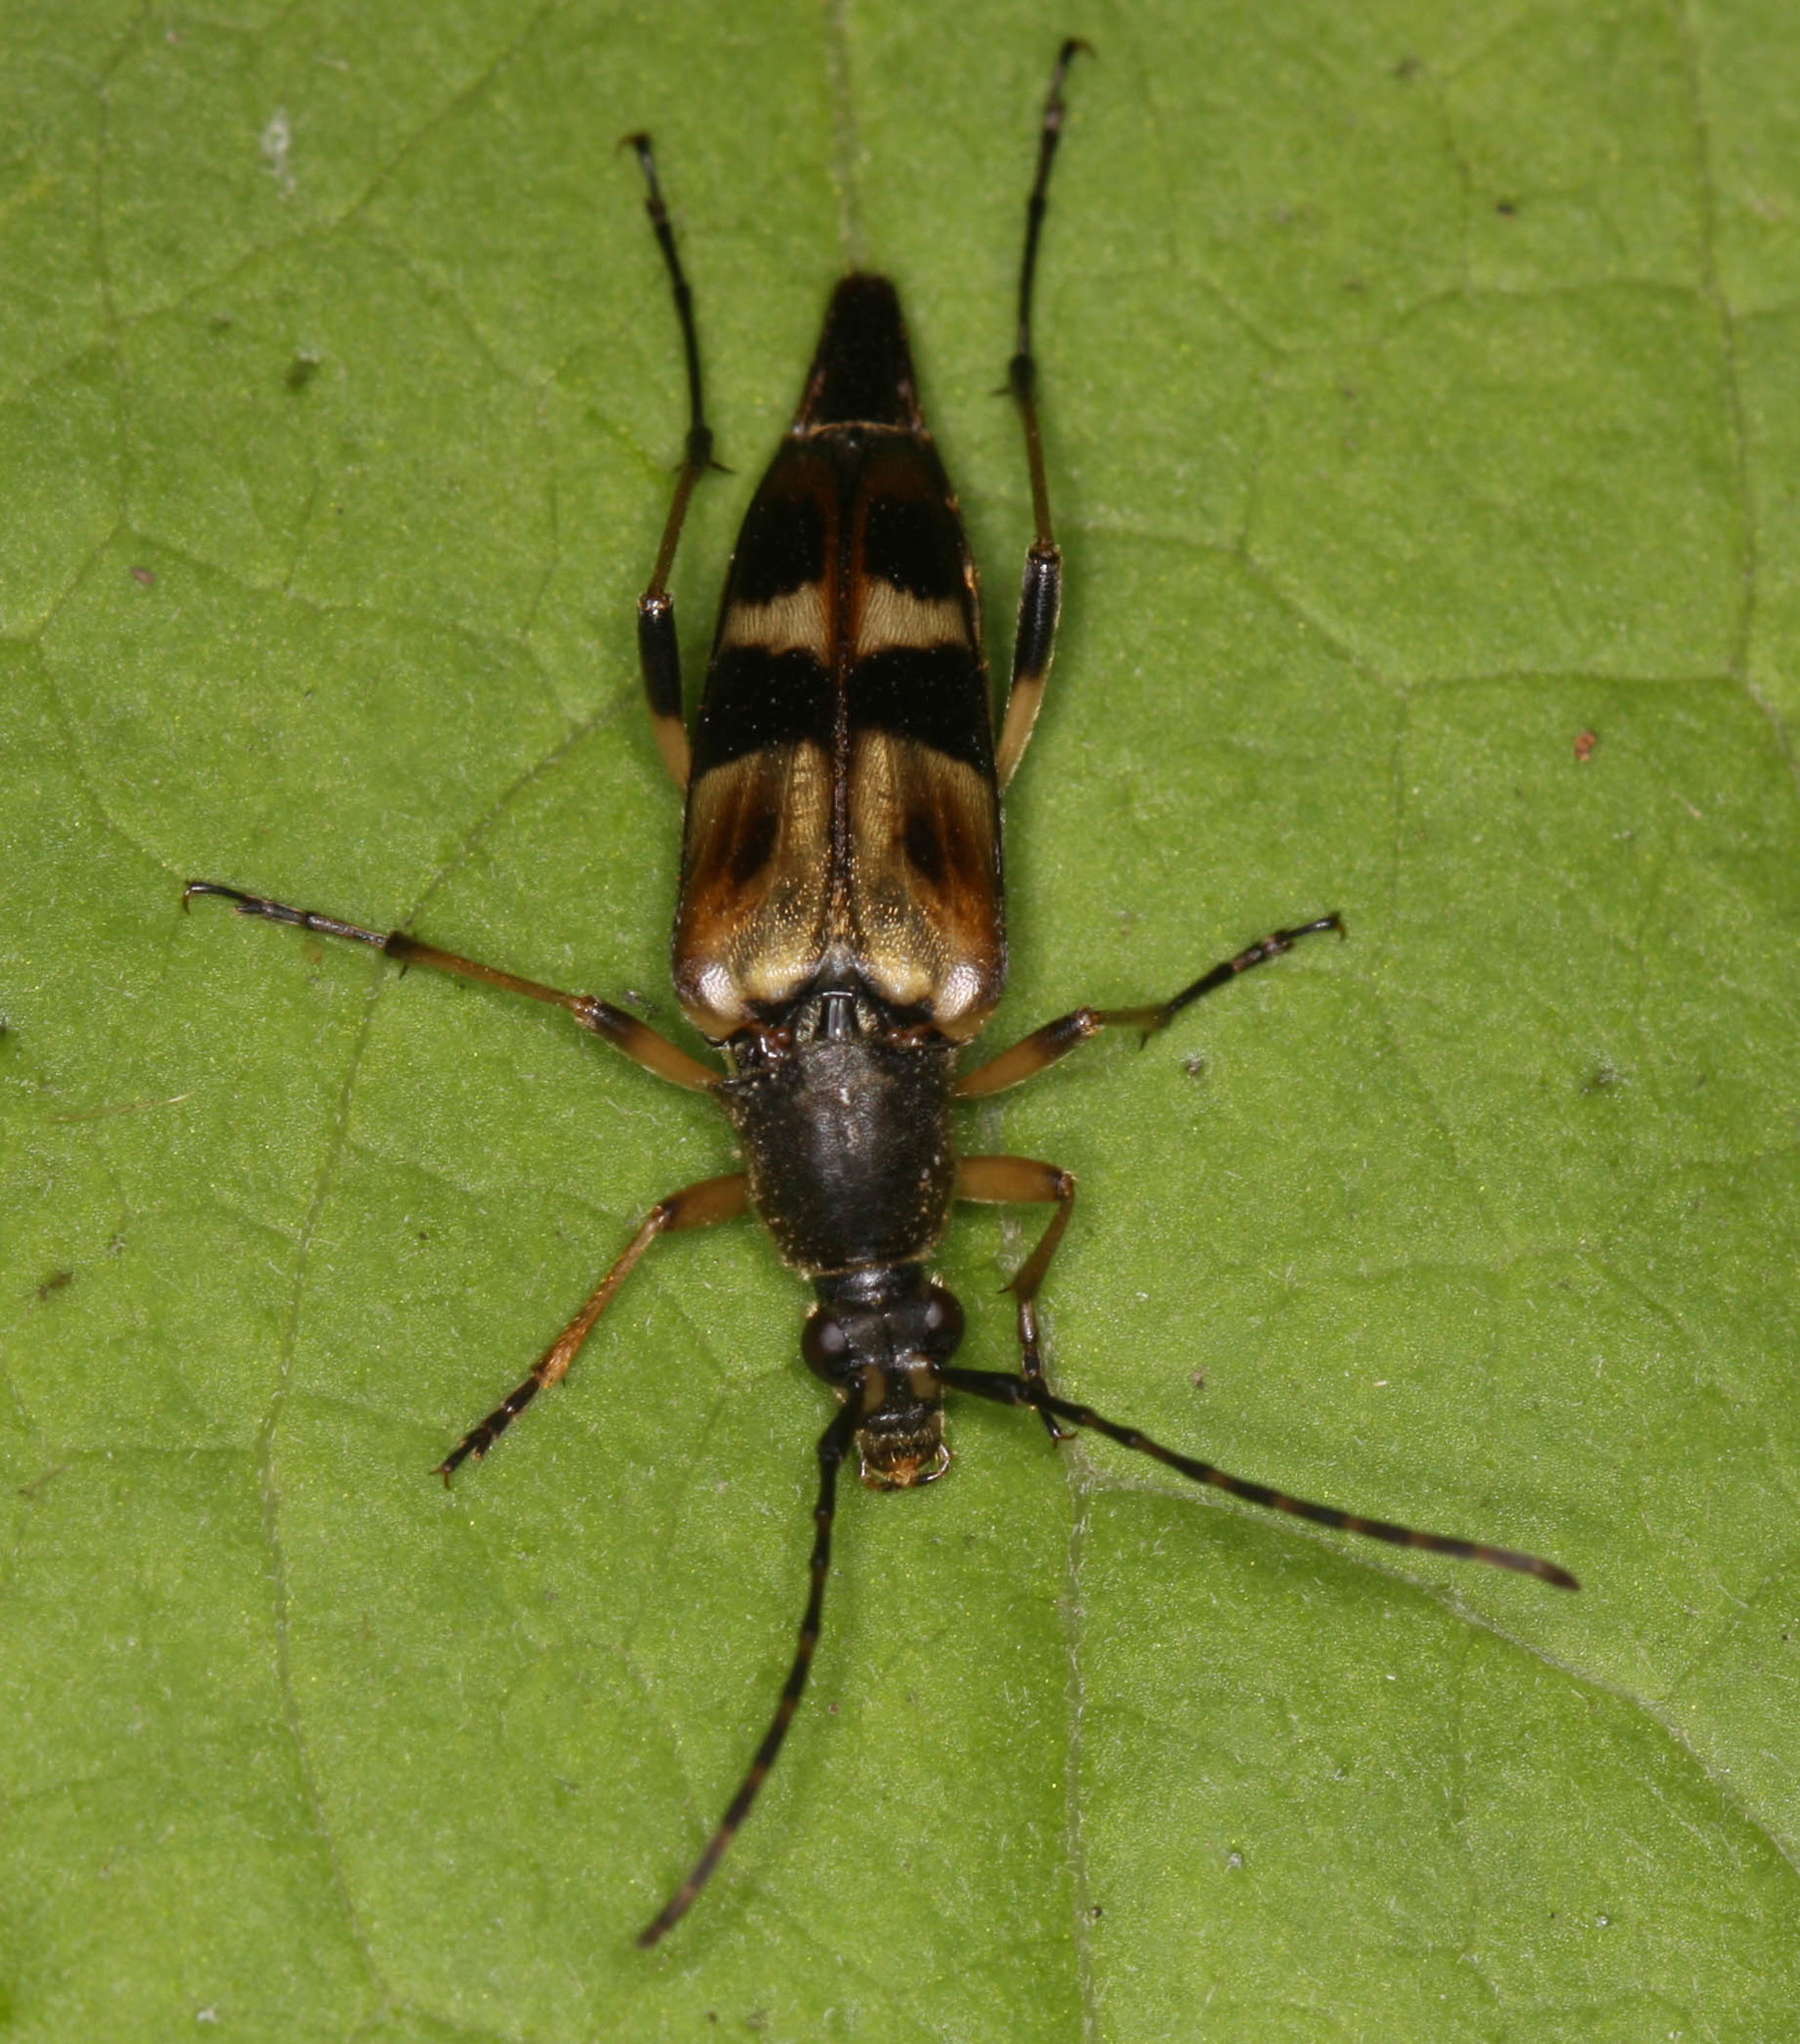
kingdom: Animalia
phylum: Arthropoda
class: Insecta
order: Coleoptera
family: Cerambycidae
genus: Etorofus
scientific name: Etorofus obliteratus
